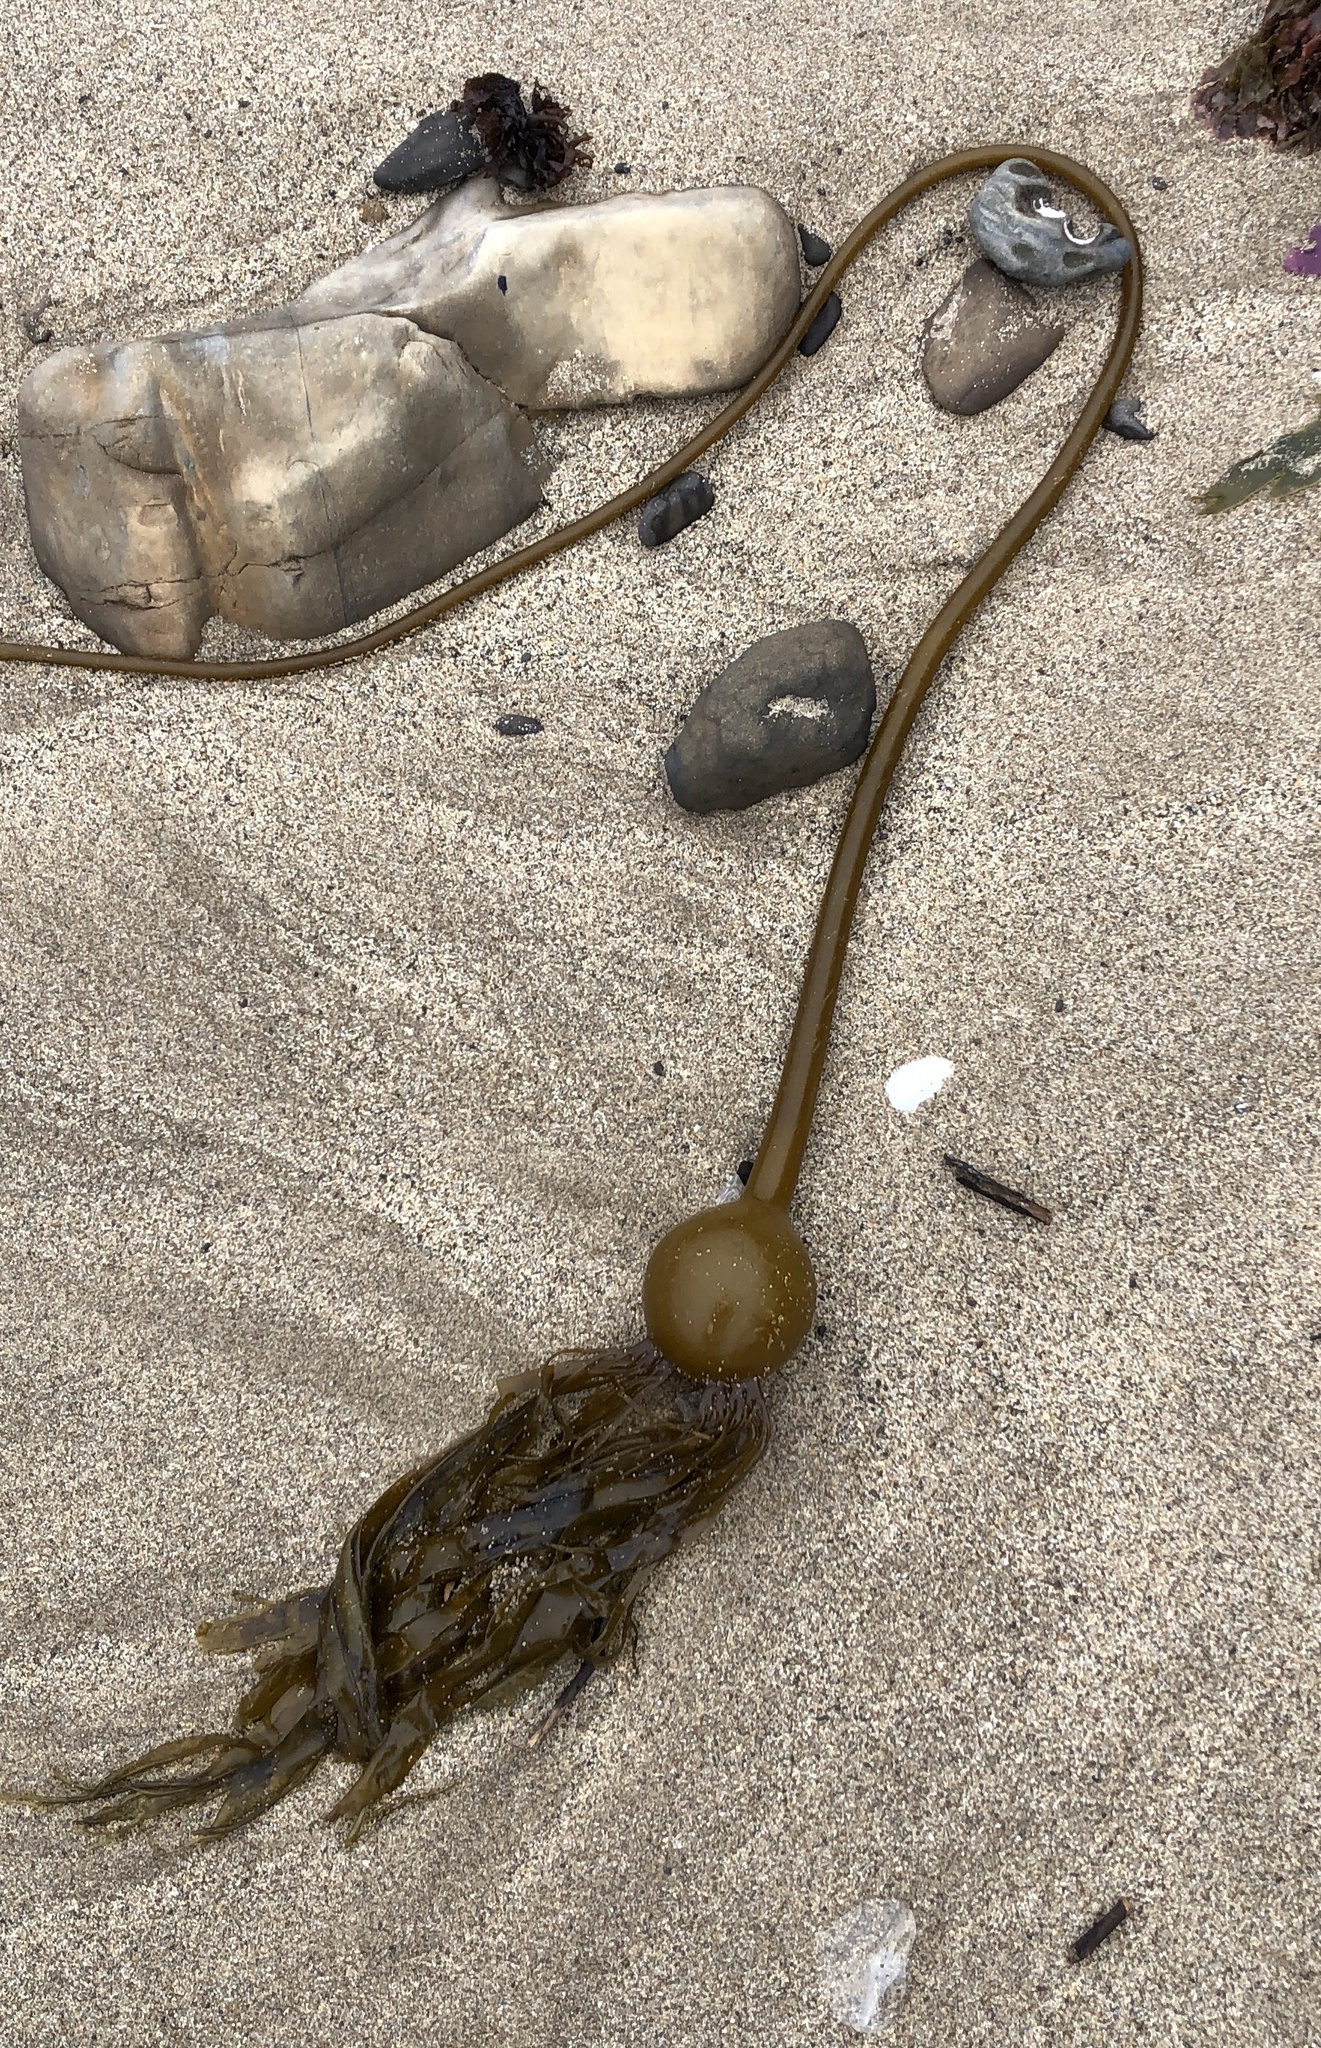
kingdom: Chromista
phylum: Ochrophyta
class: Phaeophyceae
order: Laminariales
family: Laminariaceae
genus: Nereocystis
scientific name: Nereocystis luetkeana
